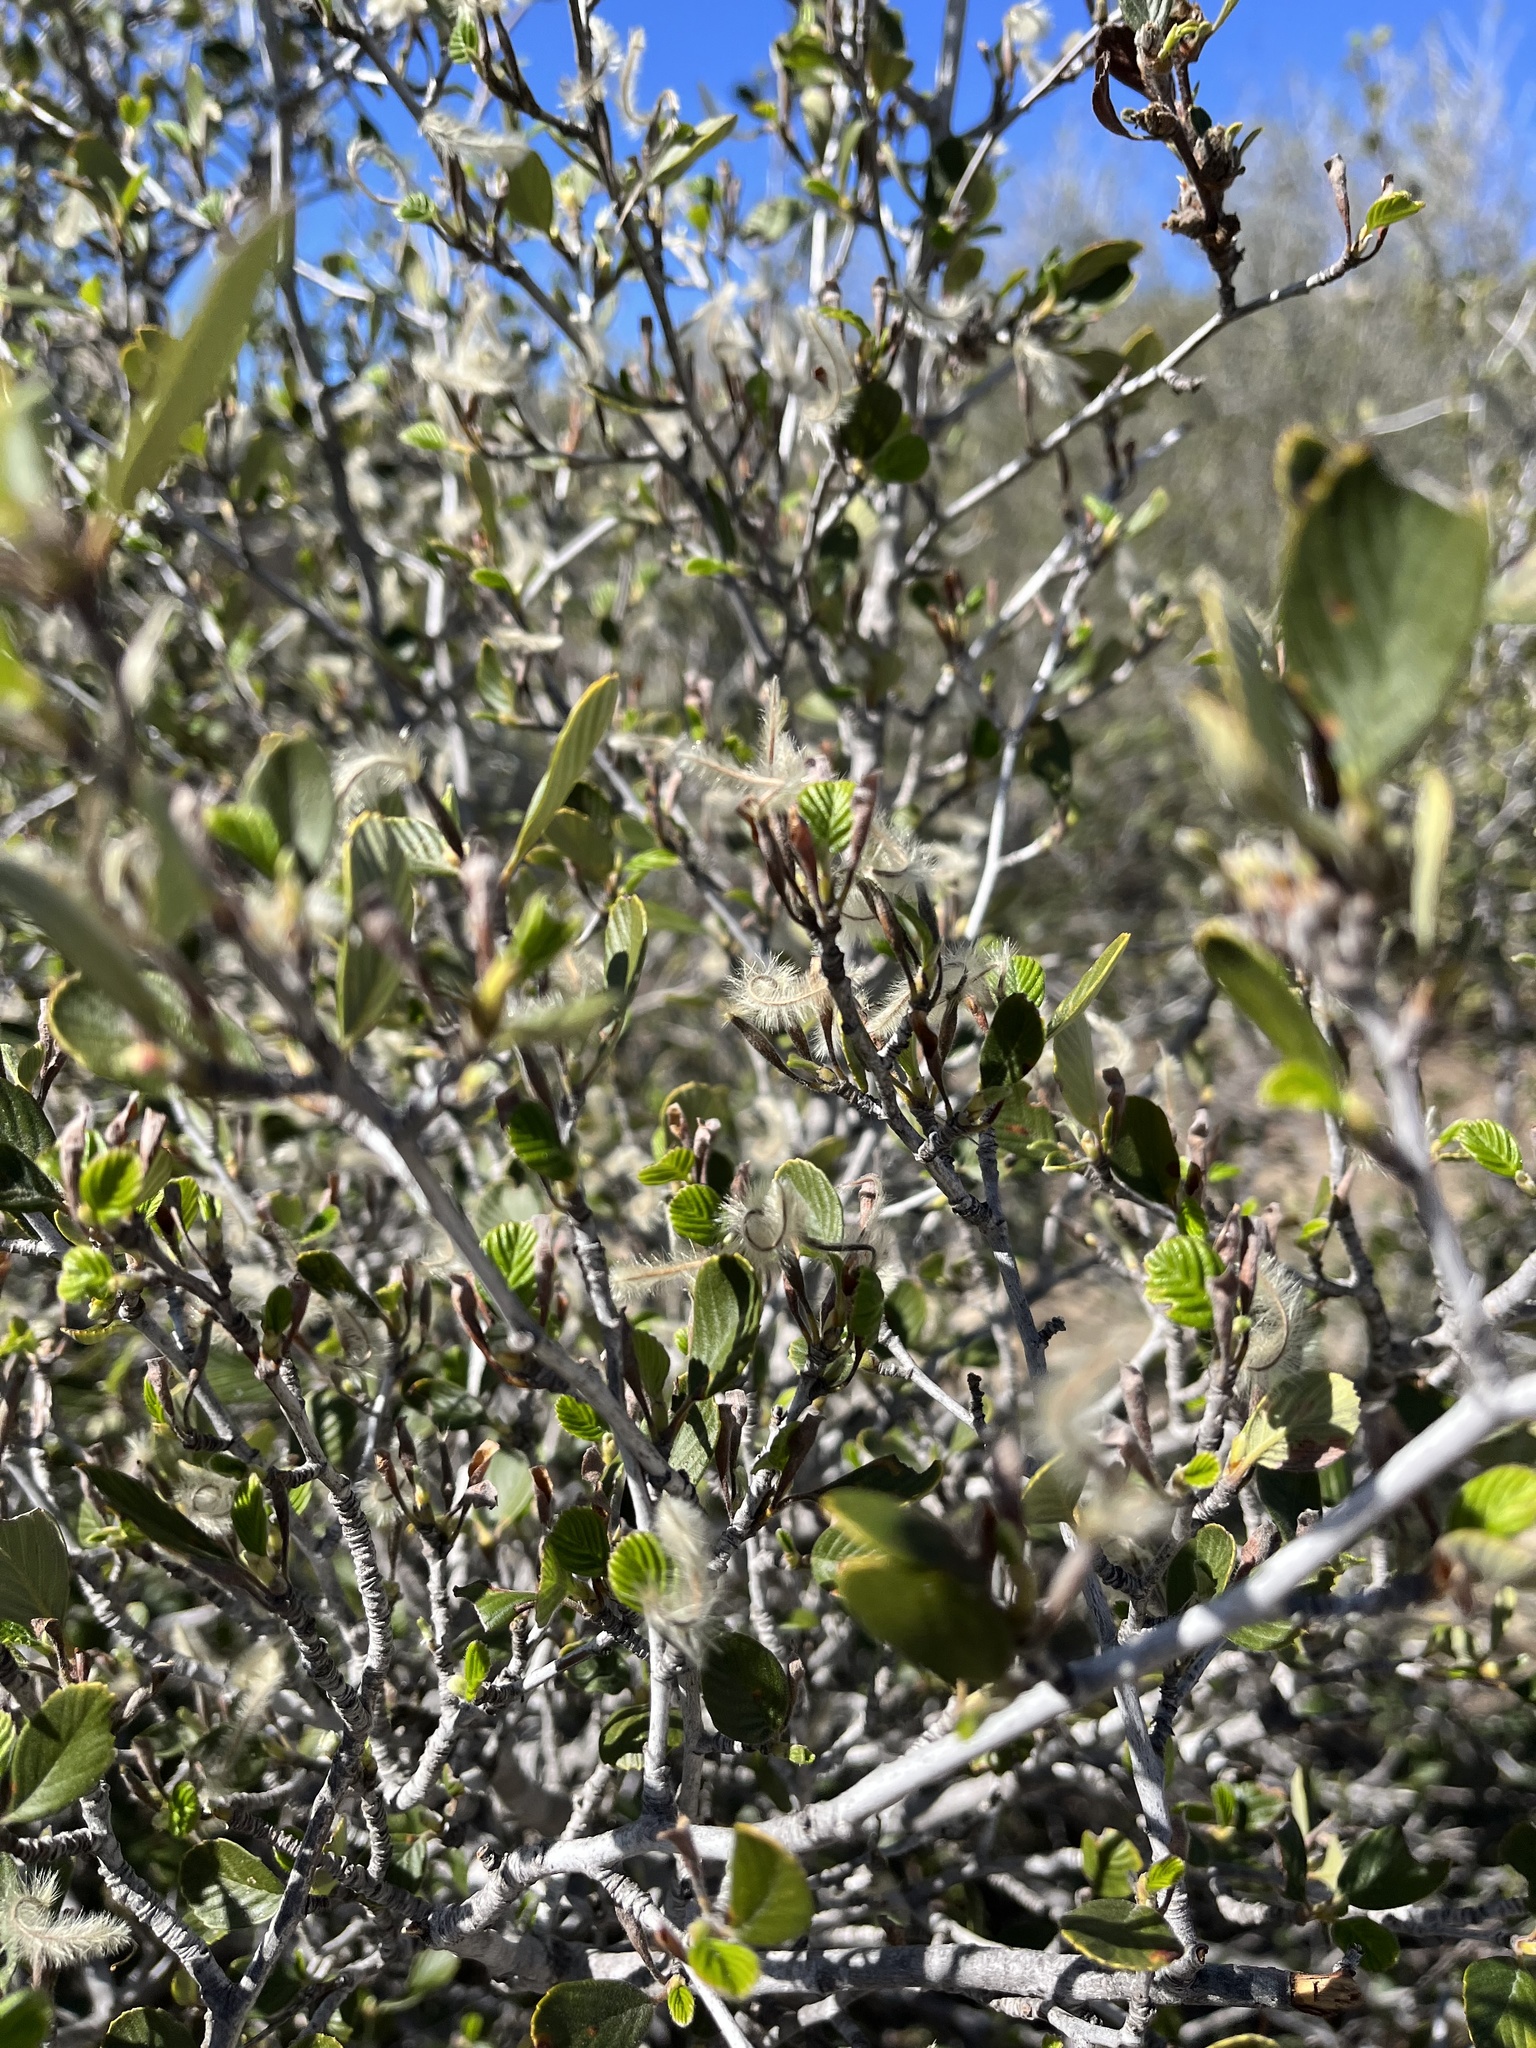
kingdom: Plantae
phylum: Tracheophyta
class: Magnoliopsida
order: Rosales
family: Rosaceae
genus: Cercocarpus
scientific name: Cercocarpus betuloides
